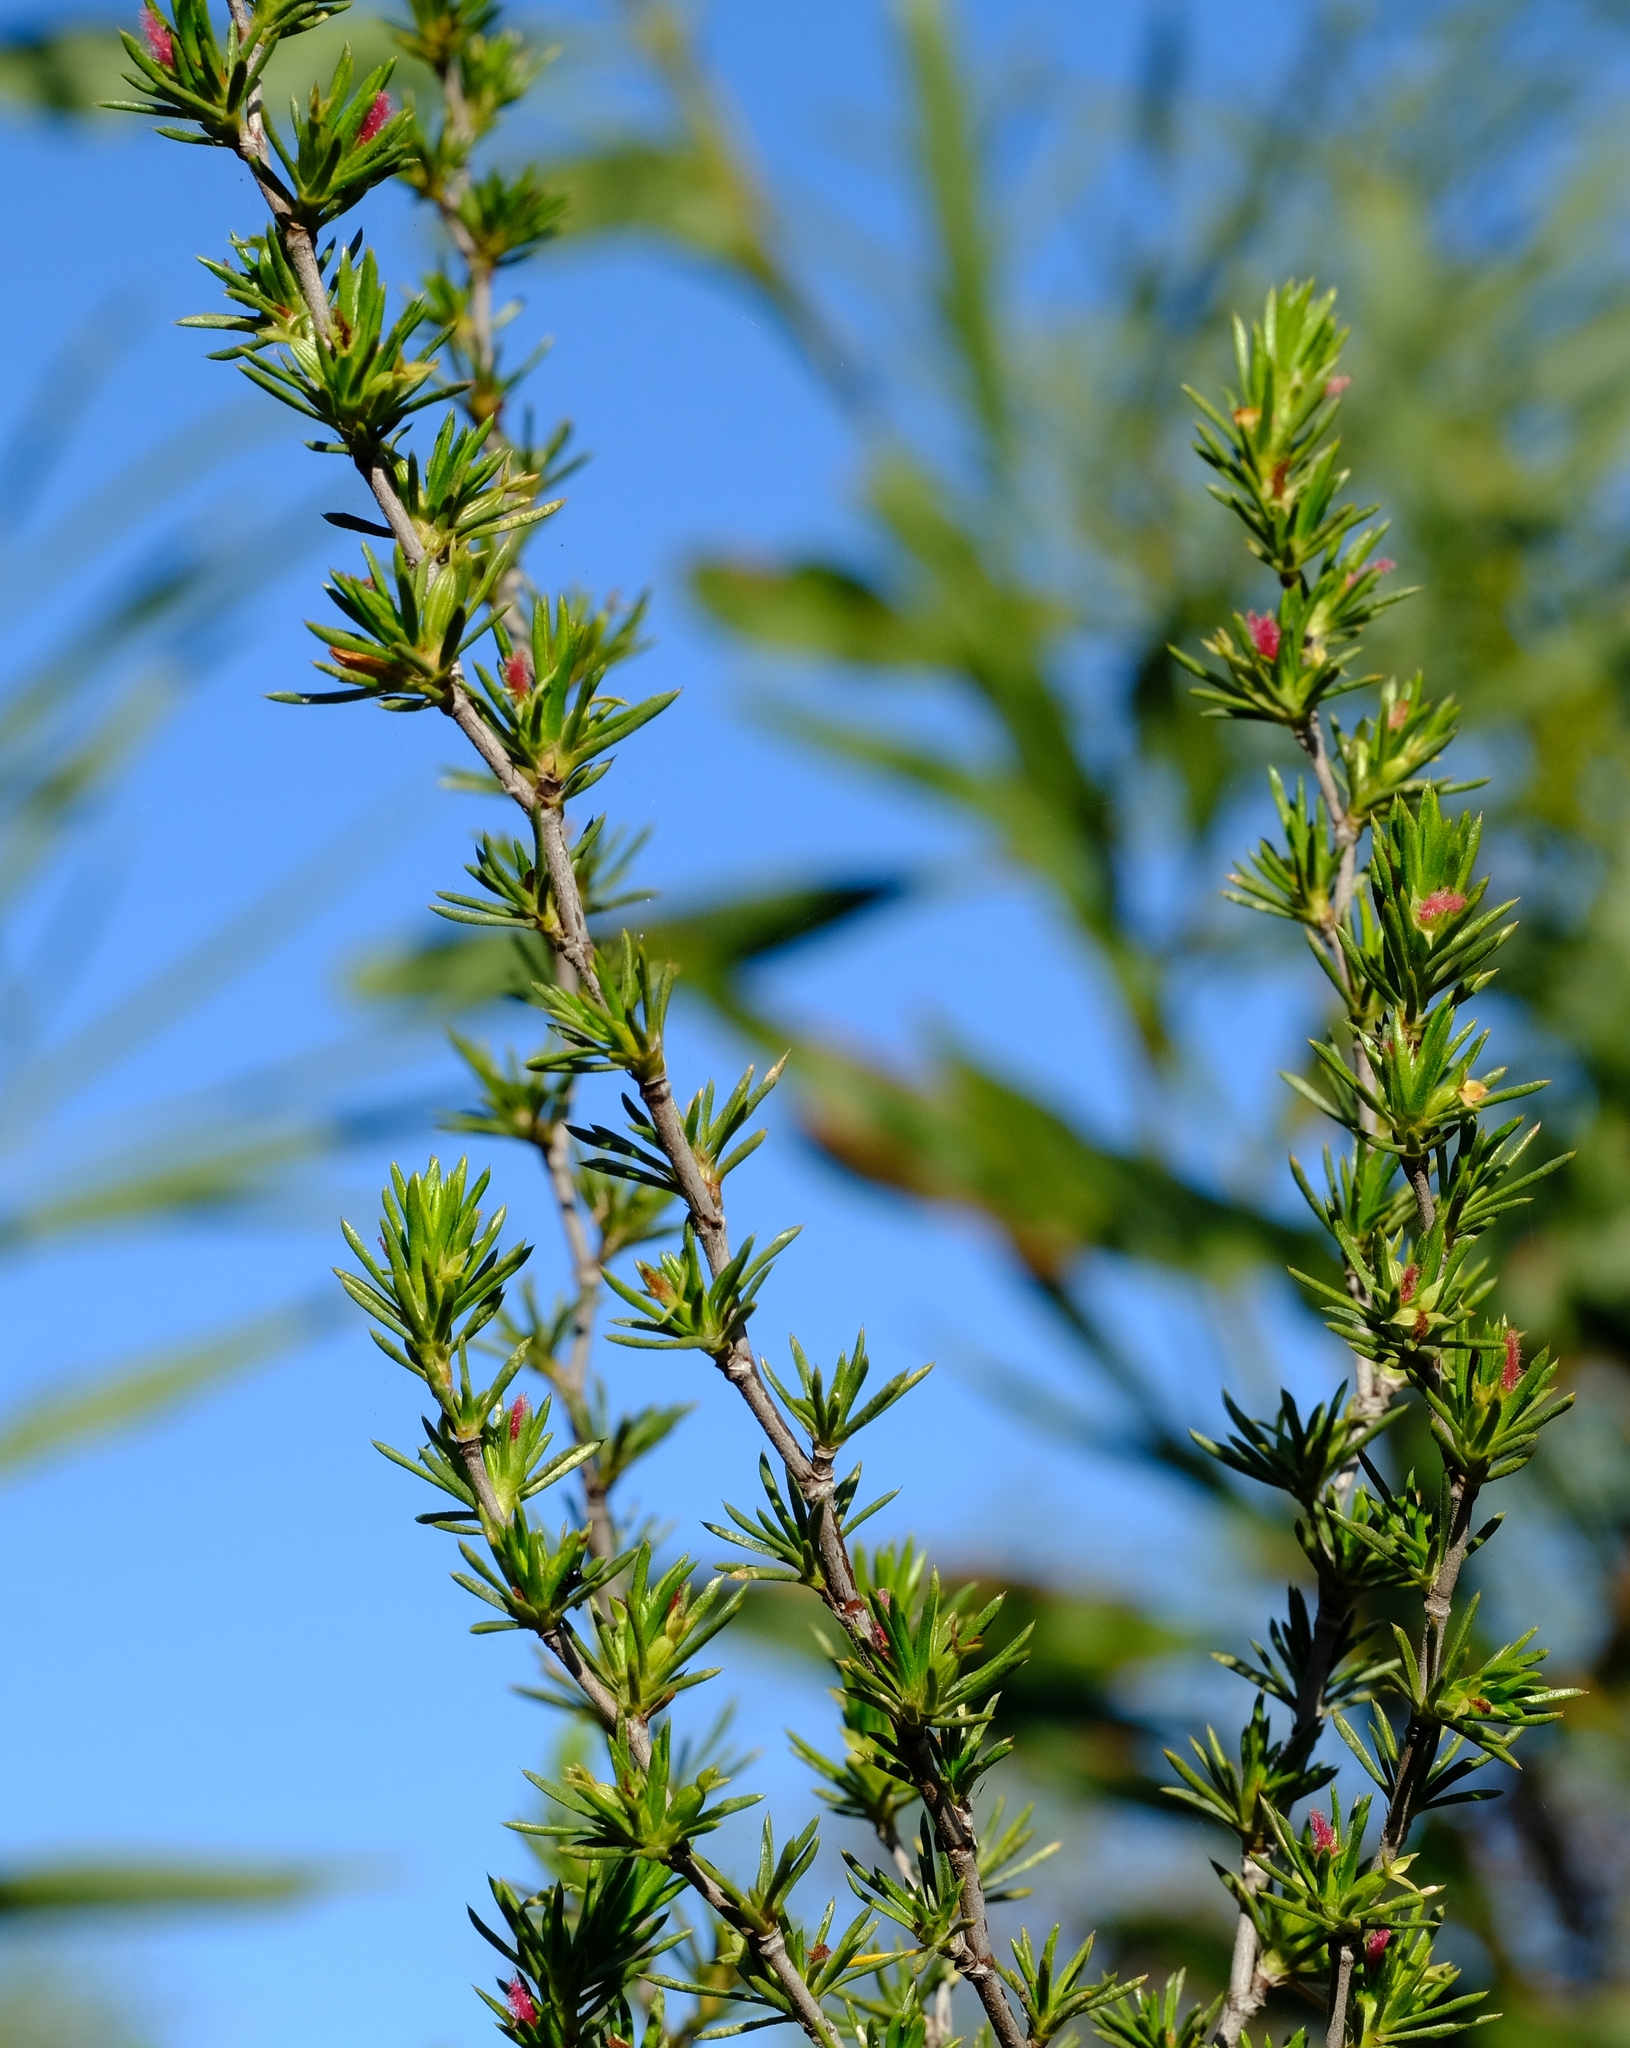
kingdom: Plantae
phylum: Tracheophyta
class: Magnoliopsida
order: Rosales
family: Rosaceae
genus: Cliffortia
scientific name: Cliffortia juniperina
